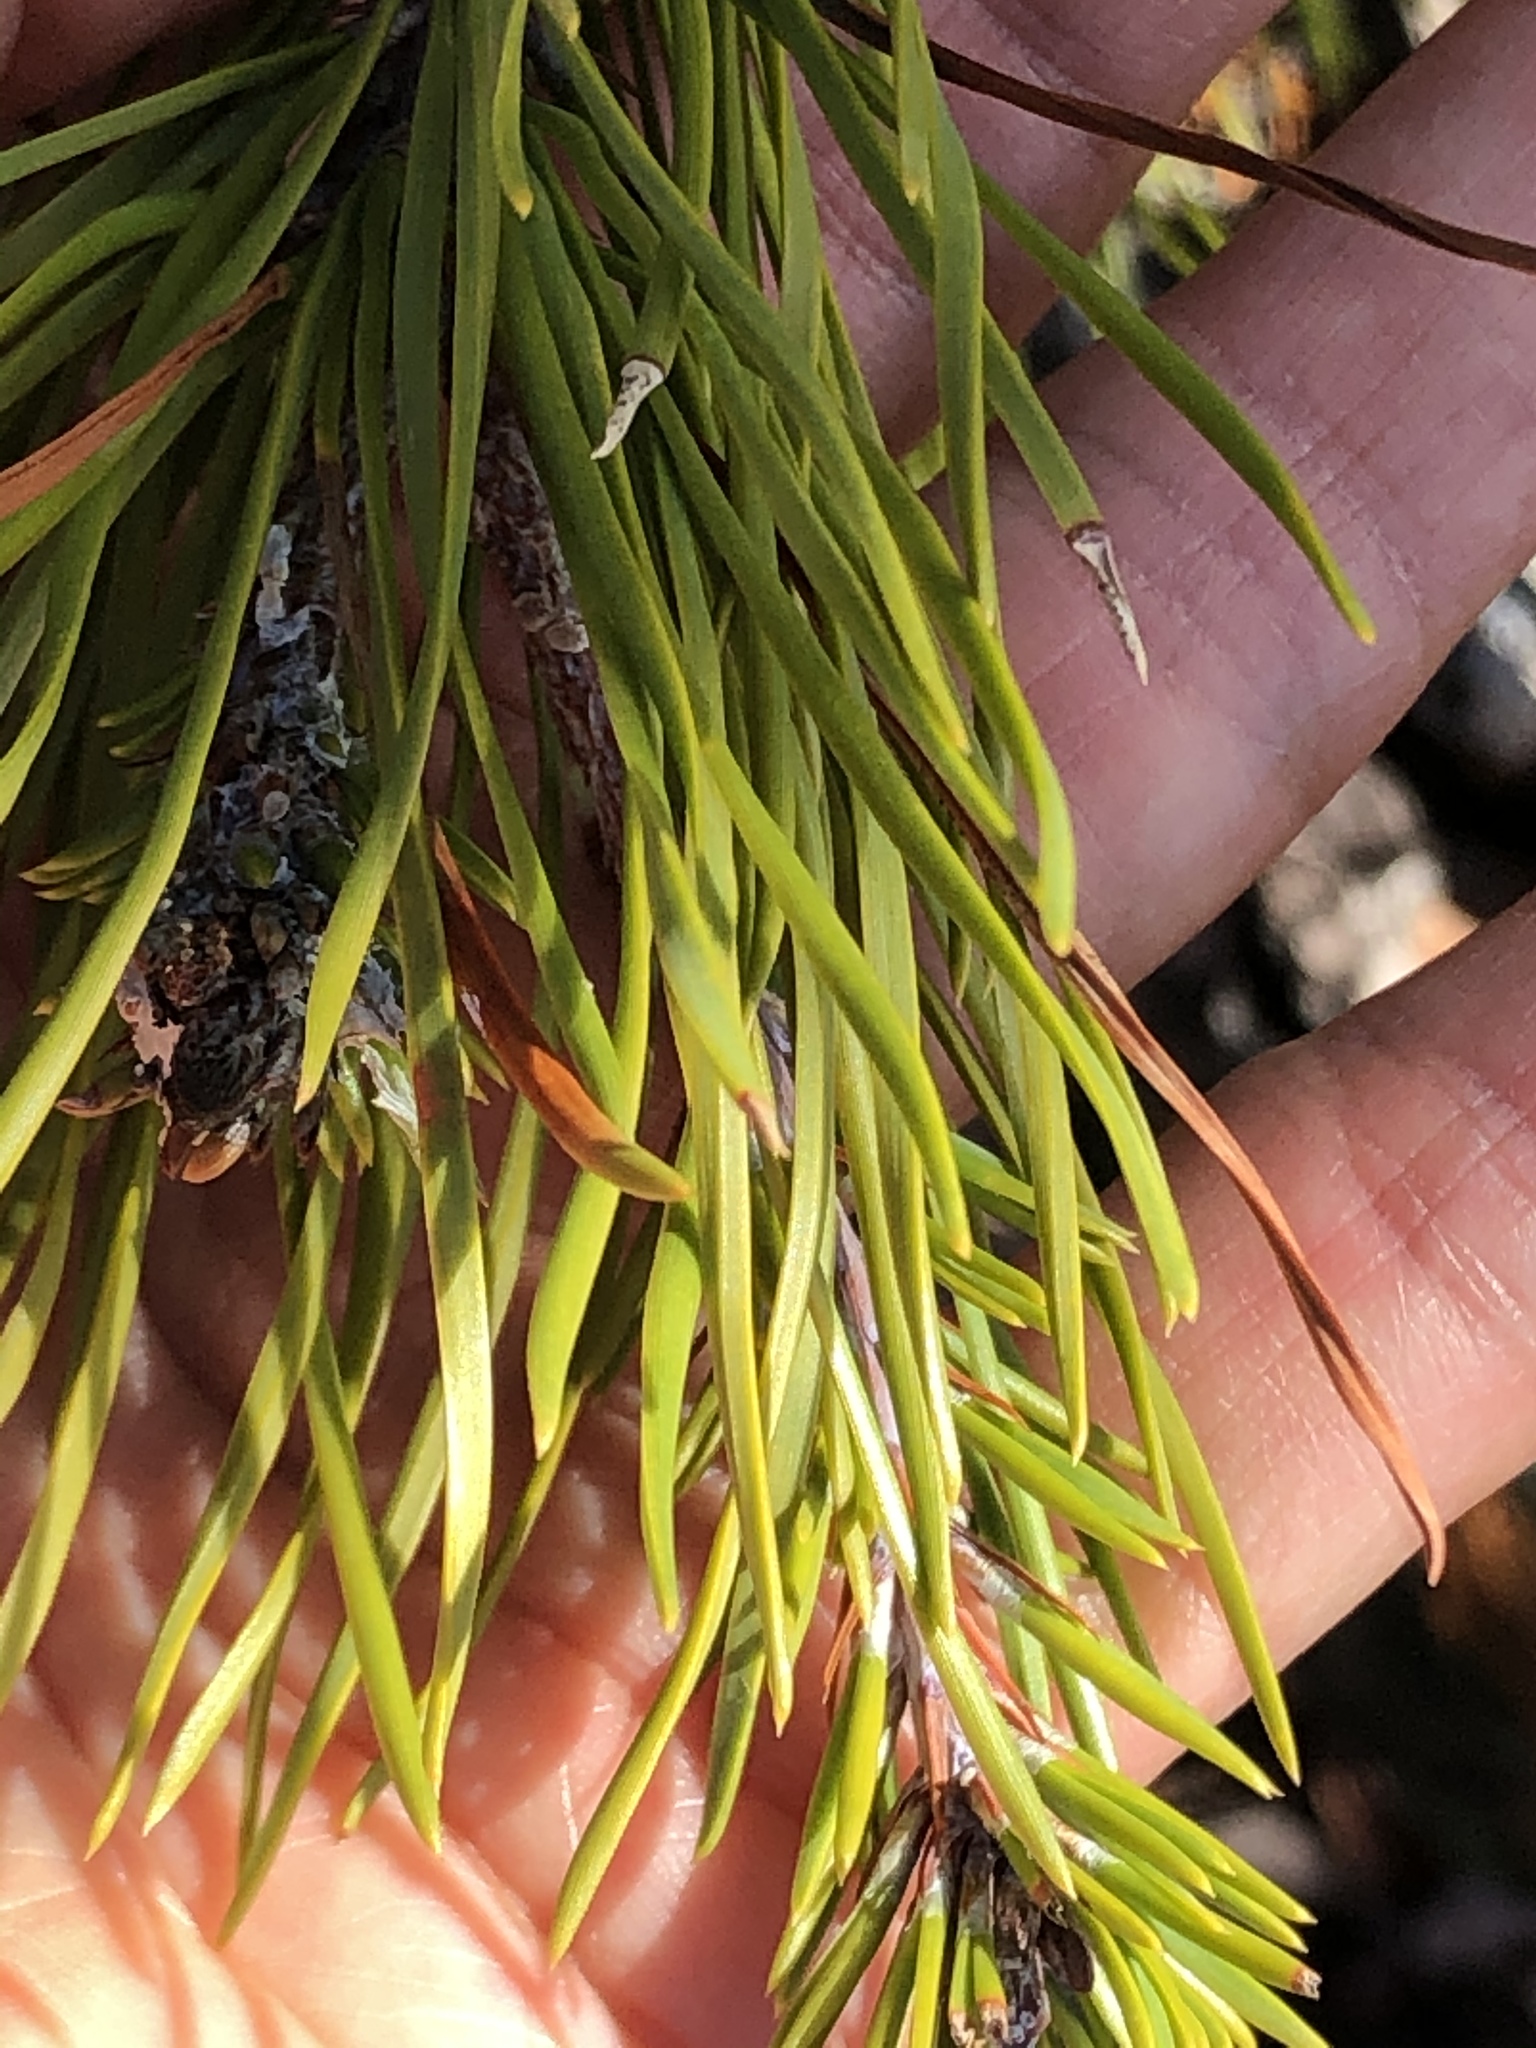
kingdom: Plantae
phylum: Tracheophyta
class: Pinopsida
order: Pinales
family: Pinaceae
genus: Pinus
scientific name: Pinus virginiana
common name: Scrub pine
